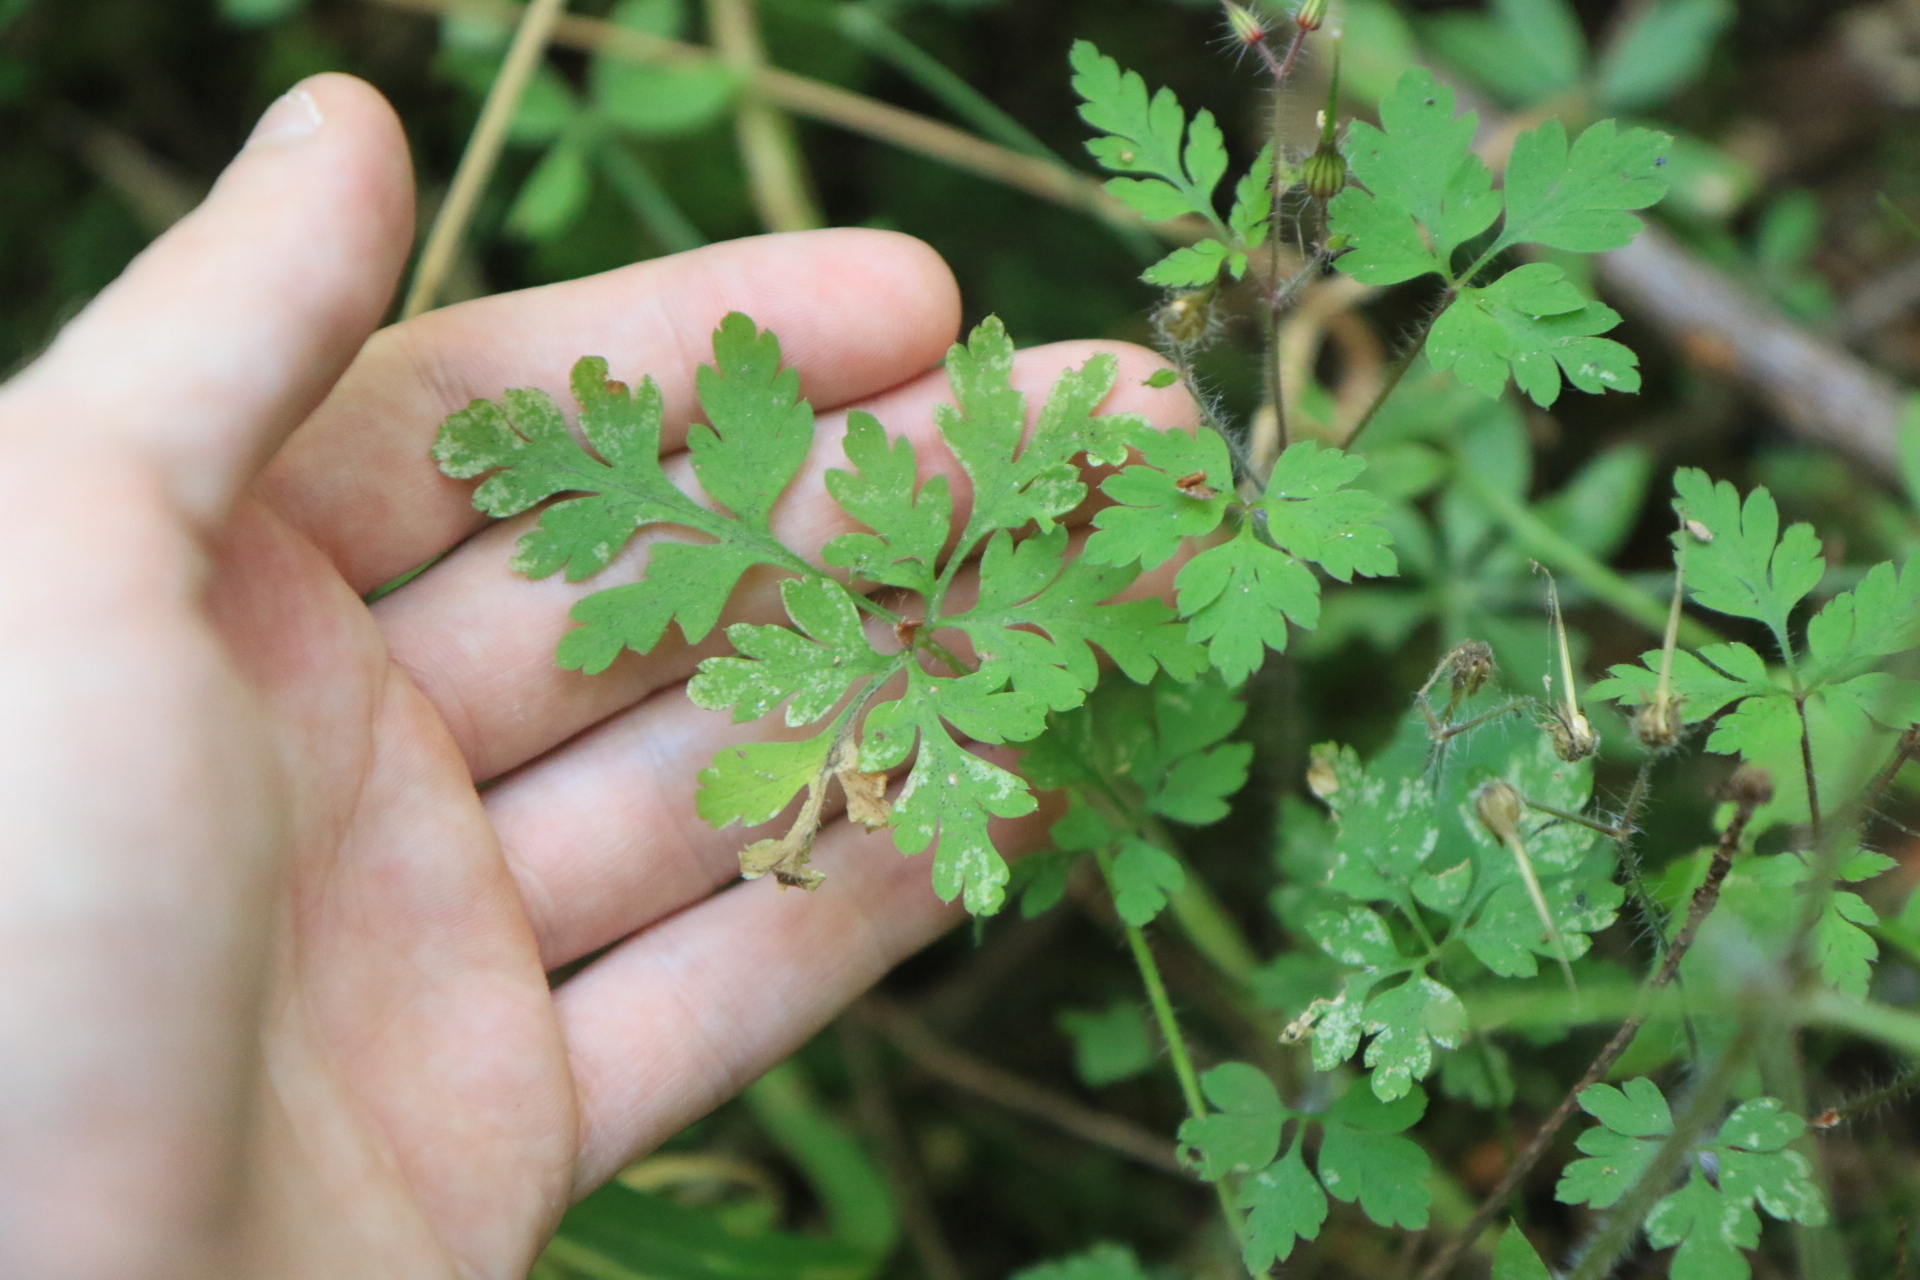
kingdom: Plantae
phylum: Tracheophyta
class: Magnoliopsida
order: Geraniales
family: Geraniaceae
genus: Geranium
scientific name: Geranium robertianum
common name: Herb-robert
